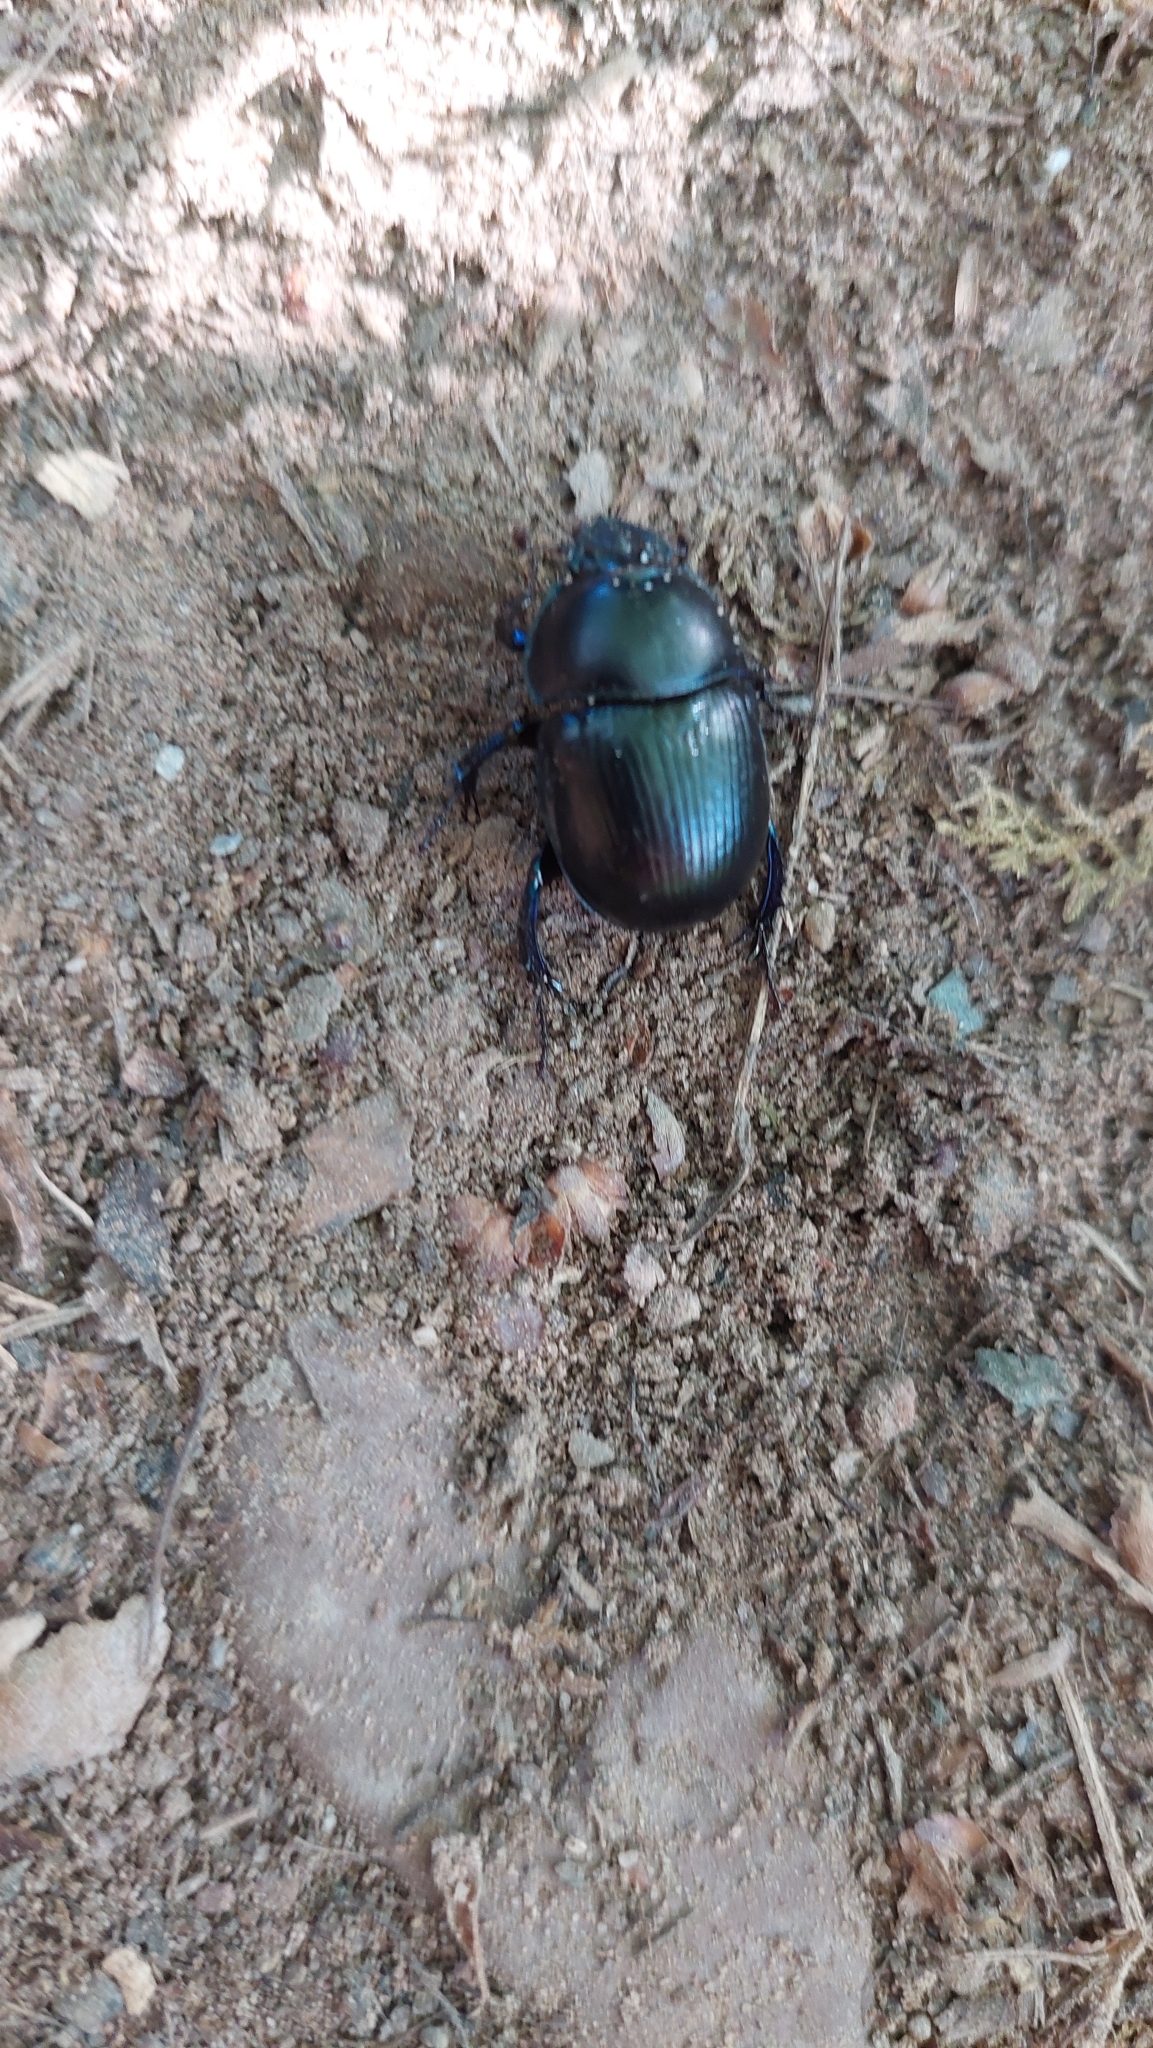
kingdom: Animalia
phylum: Arthropoda
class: Insecta
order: Coleoptera
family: Geotrupidae
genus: Anoplotrupes
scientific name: Anoplotrupes stercorosus
